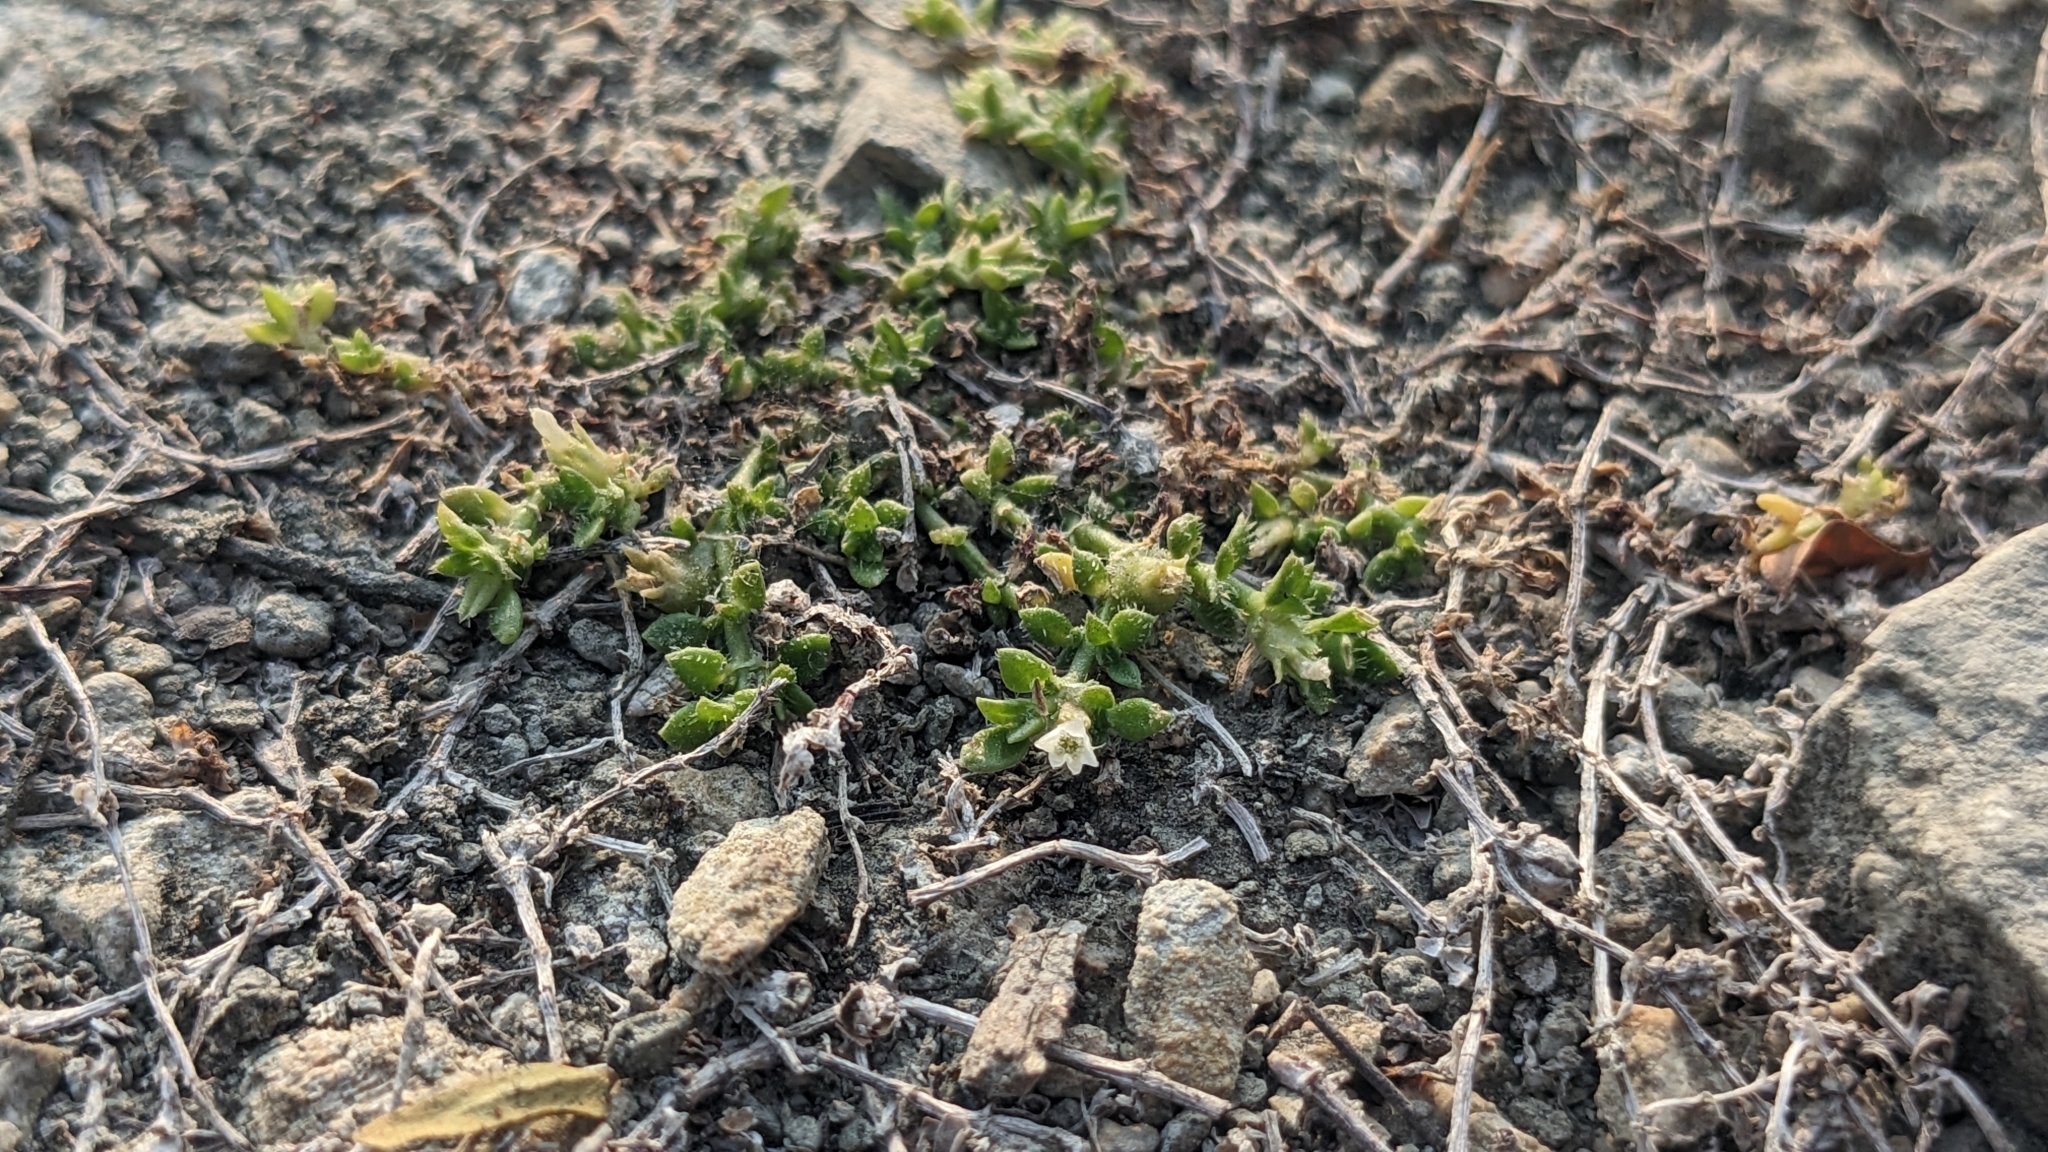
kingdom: Plantae
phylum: Tracheophyta
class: Magnoliopsida
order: Gentianales
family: Rubiaceae
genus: Dentella
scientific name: Dentella repens
